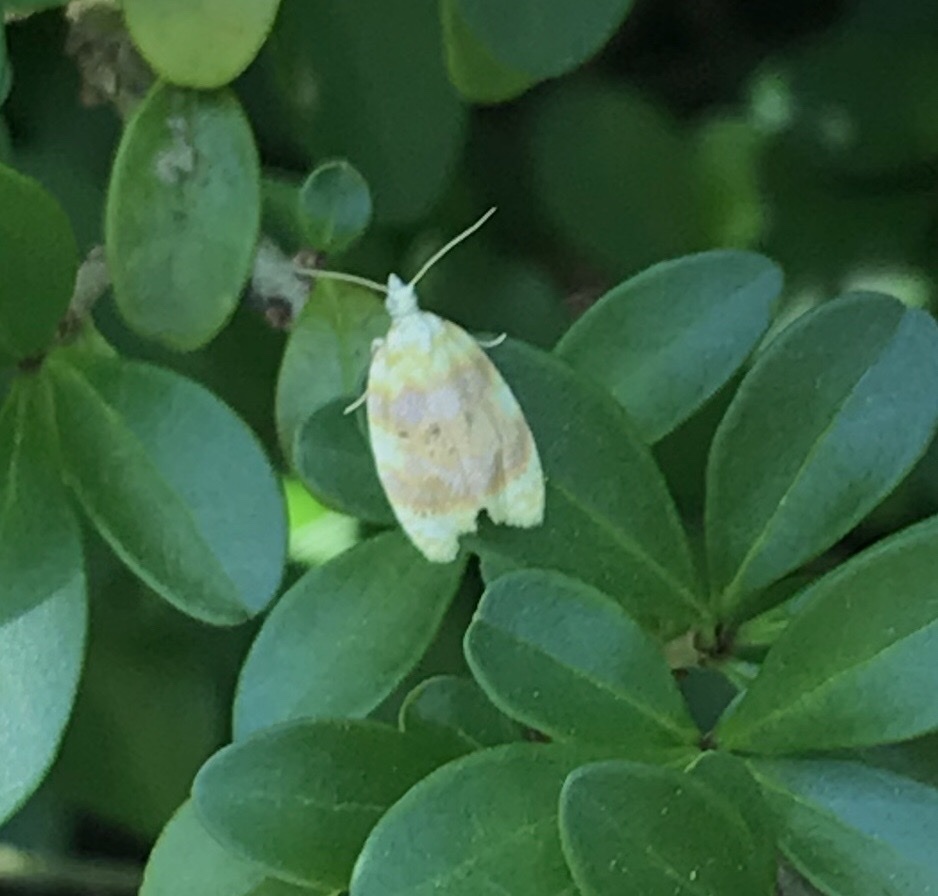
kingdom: Animalia
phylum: Arthropoda
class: Insecta
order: Lepidoptera
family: Tortricidae
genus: Acleris
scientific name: Acleris semipurpurana
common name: Oak leaftier moth
